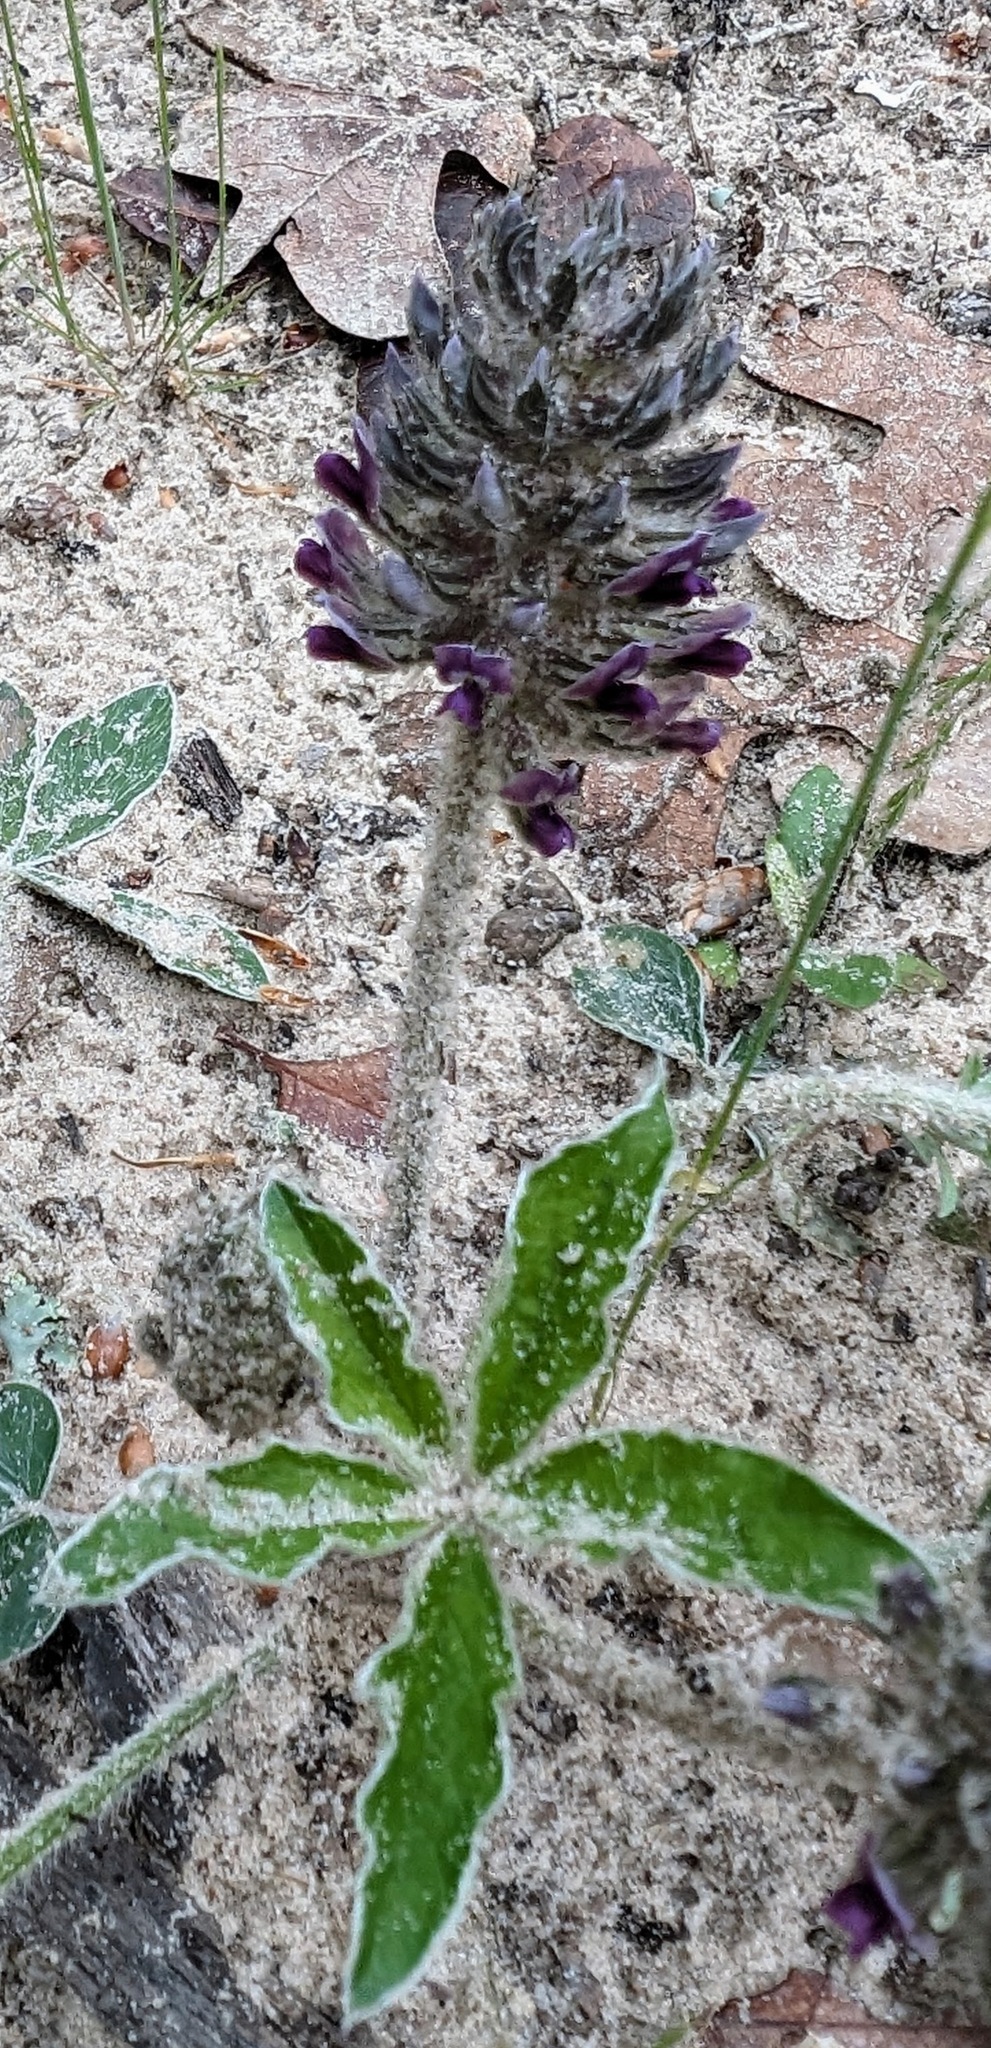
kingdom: Plantae
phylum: Tracheophyta
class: Magnoliopsida
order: Fabales
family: Fabaceae
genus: Pediomelum
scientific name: Pediomelum hypogaeum
